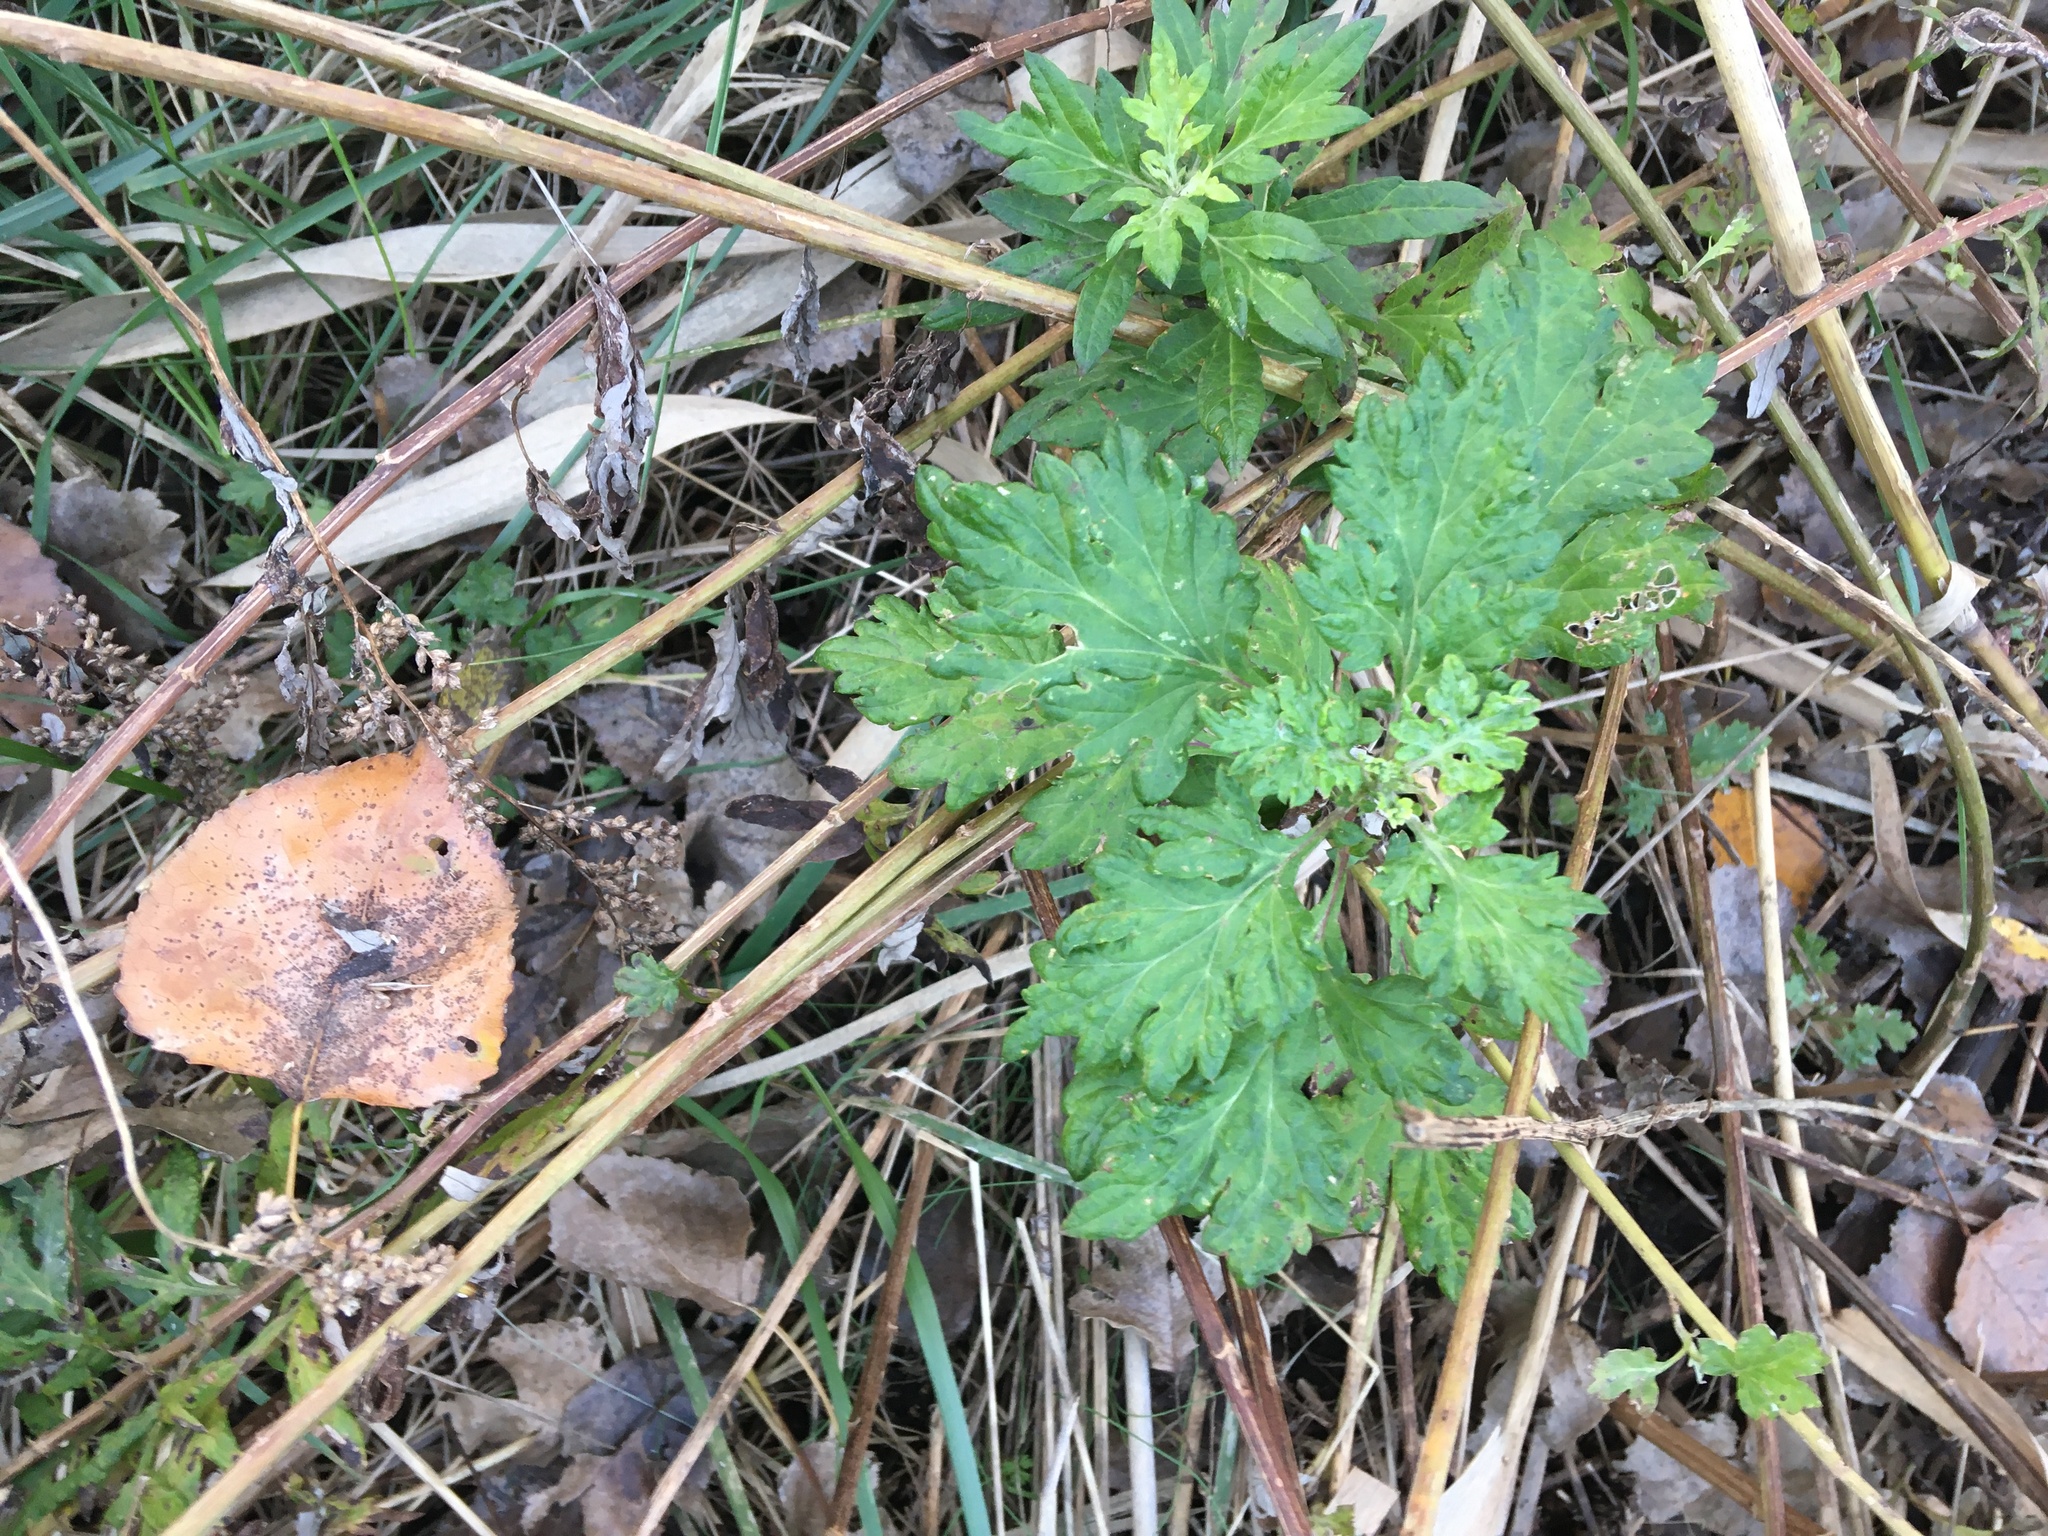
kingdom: Plantae
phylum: Tracheophyta
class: Magnoliopsida
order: Asterales
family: Asteraceae
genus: Artemisia
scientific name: Artemisia vulgaris
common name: Mugwort
